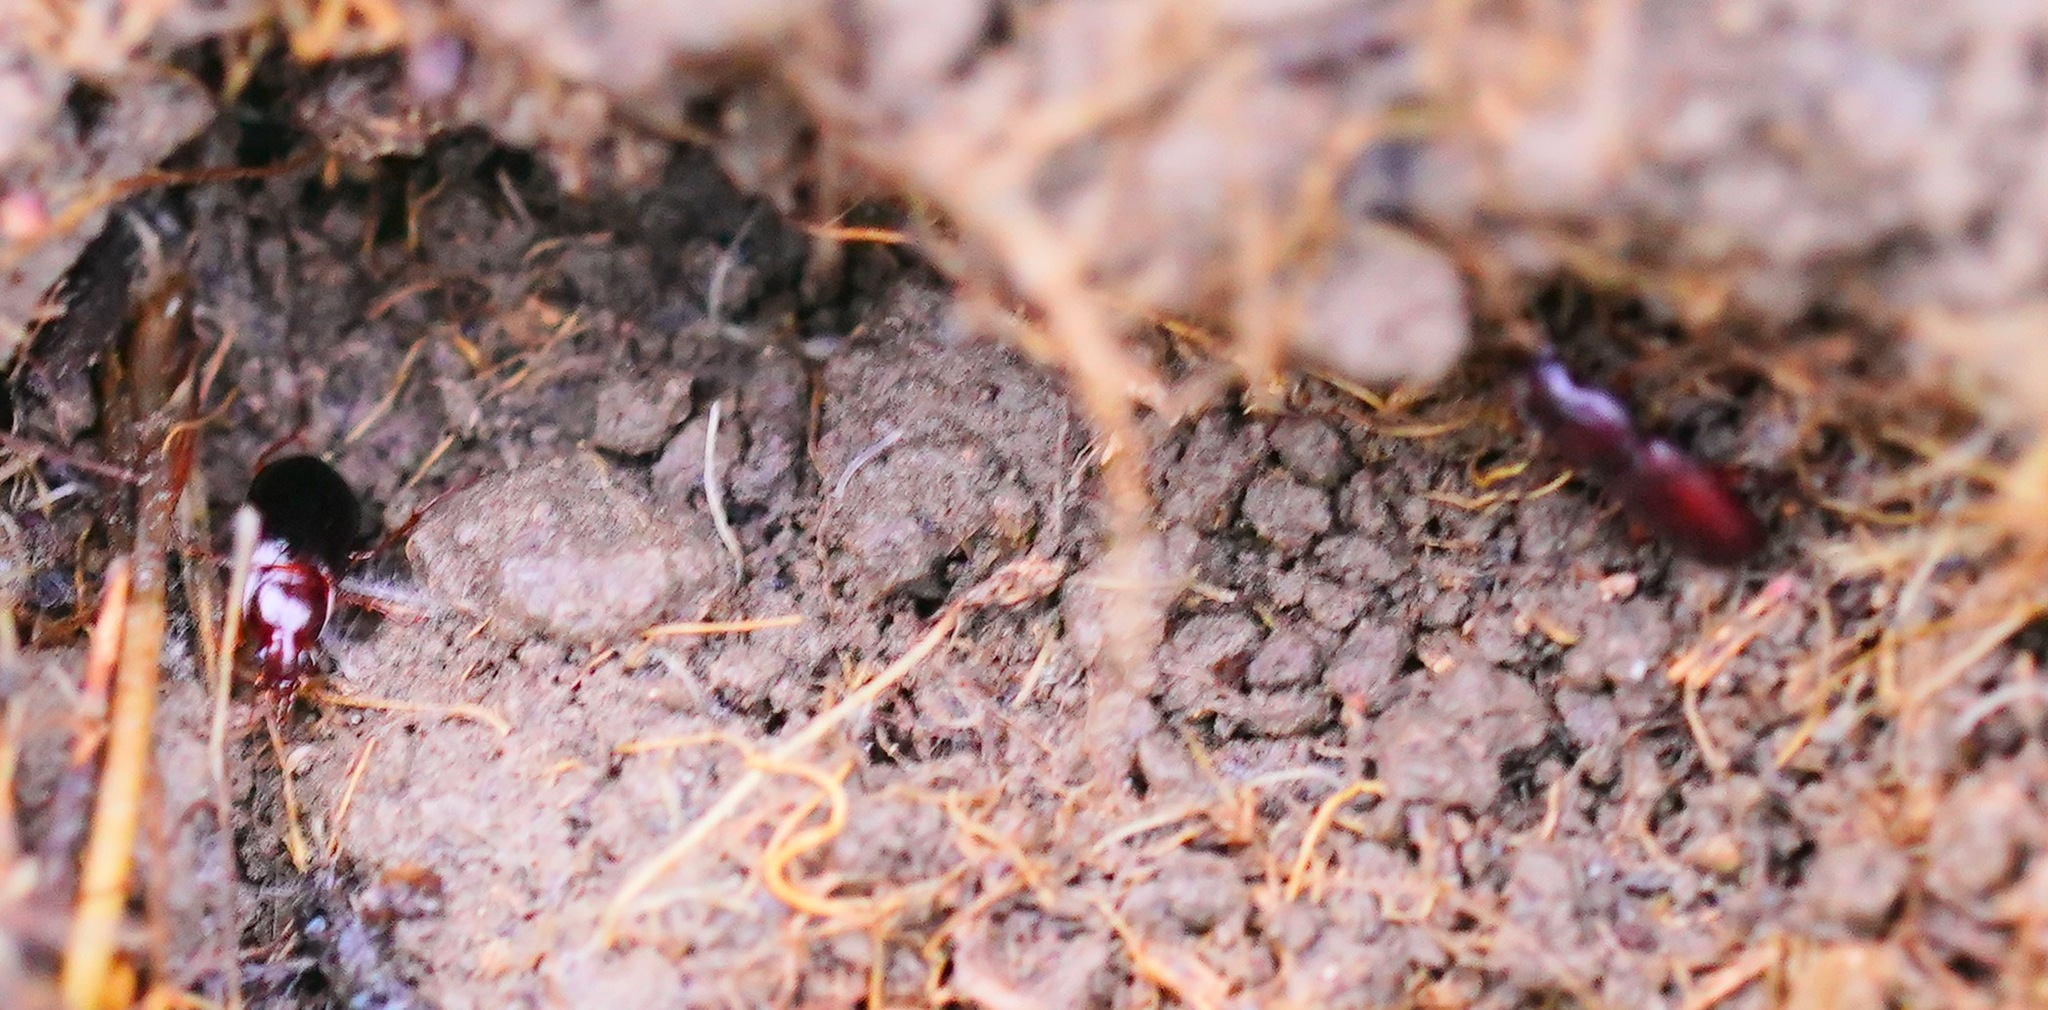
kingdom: Animalia
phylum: Arthropoda
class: Insecta
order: Coleoptera
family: Carabidae
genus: Calathus
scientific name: Calathus ruficollis
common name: Red-collared harp ground beetle
